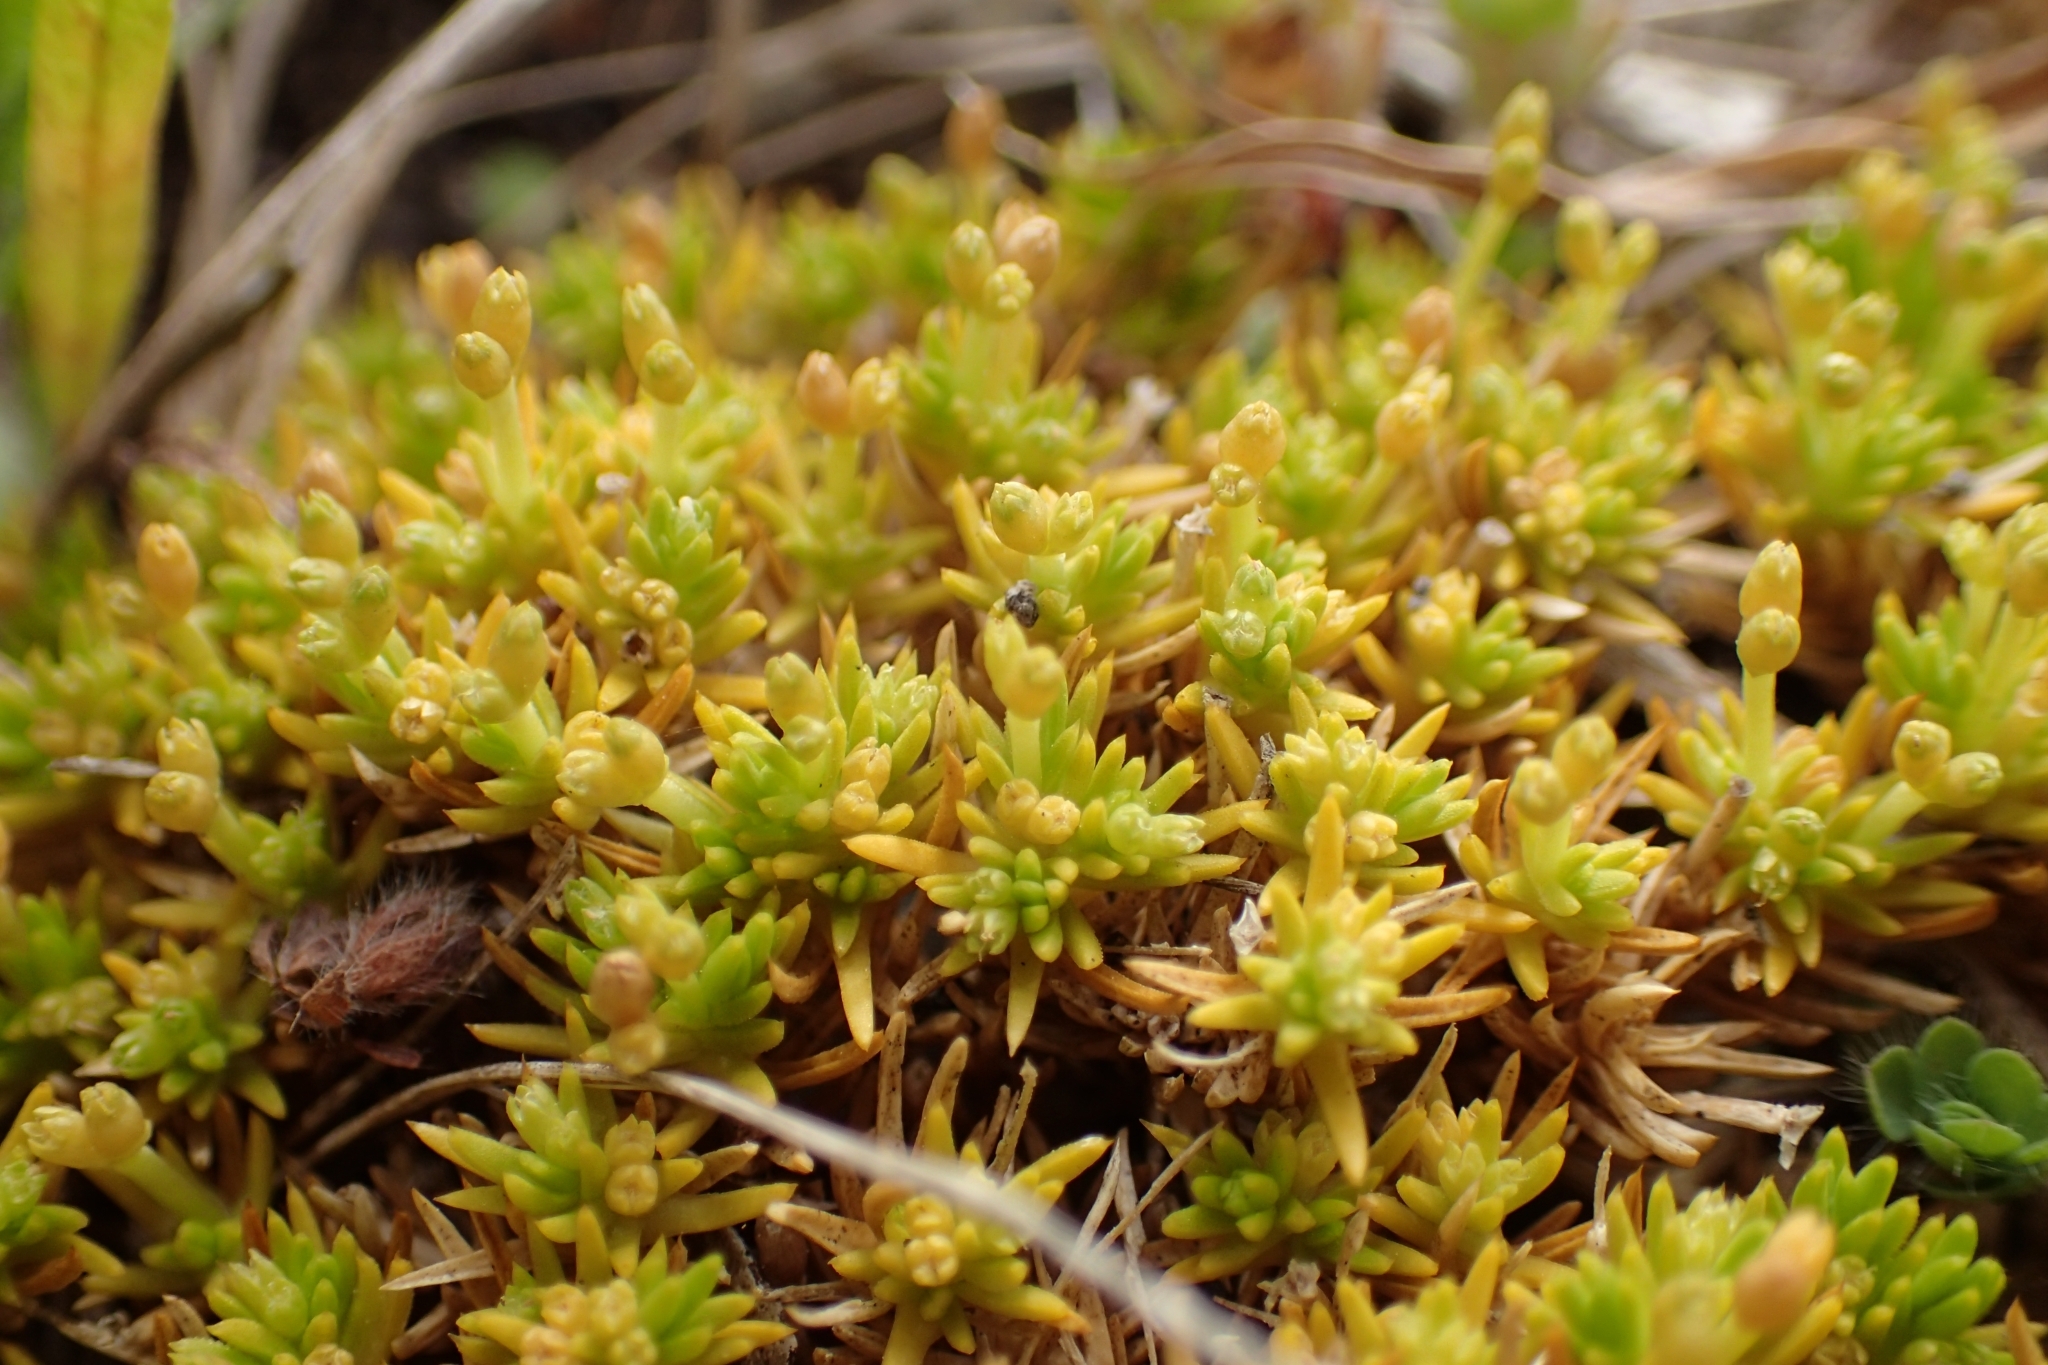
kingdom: Plantae
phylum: Tracheophyta
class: Magnoliopsida
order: Caryophyllales
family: Caryophyllaceae
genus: Scleranthus
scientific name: Scleranthus biflorus
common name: Two-flower knawel
